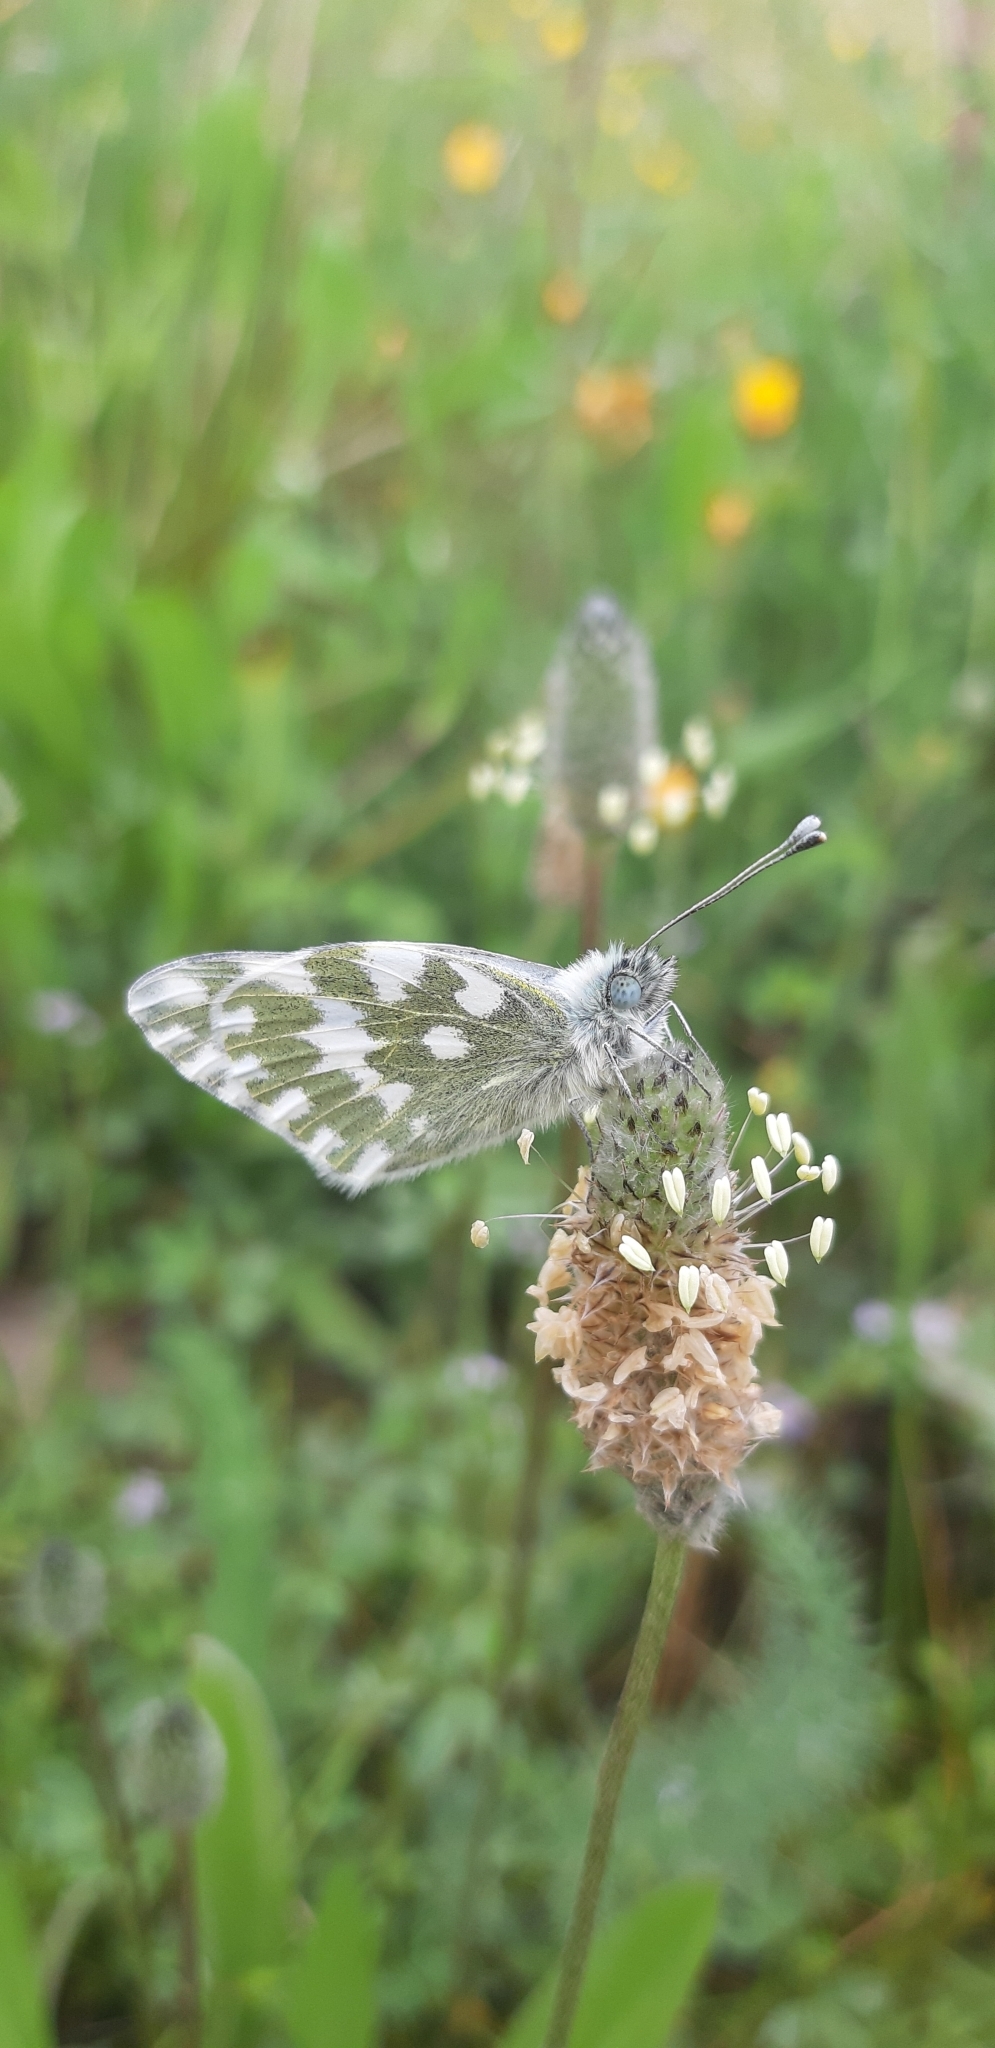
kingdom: Animalia
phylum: Arthropoda
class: Insecta
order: Lepidoptera
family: Pieridae
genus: Pontia
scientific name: Pontia edusa
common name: Eastern bath white
